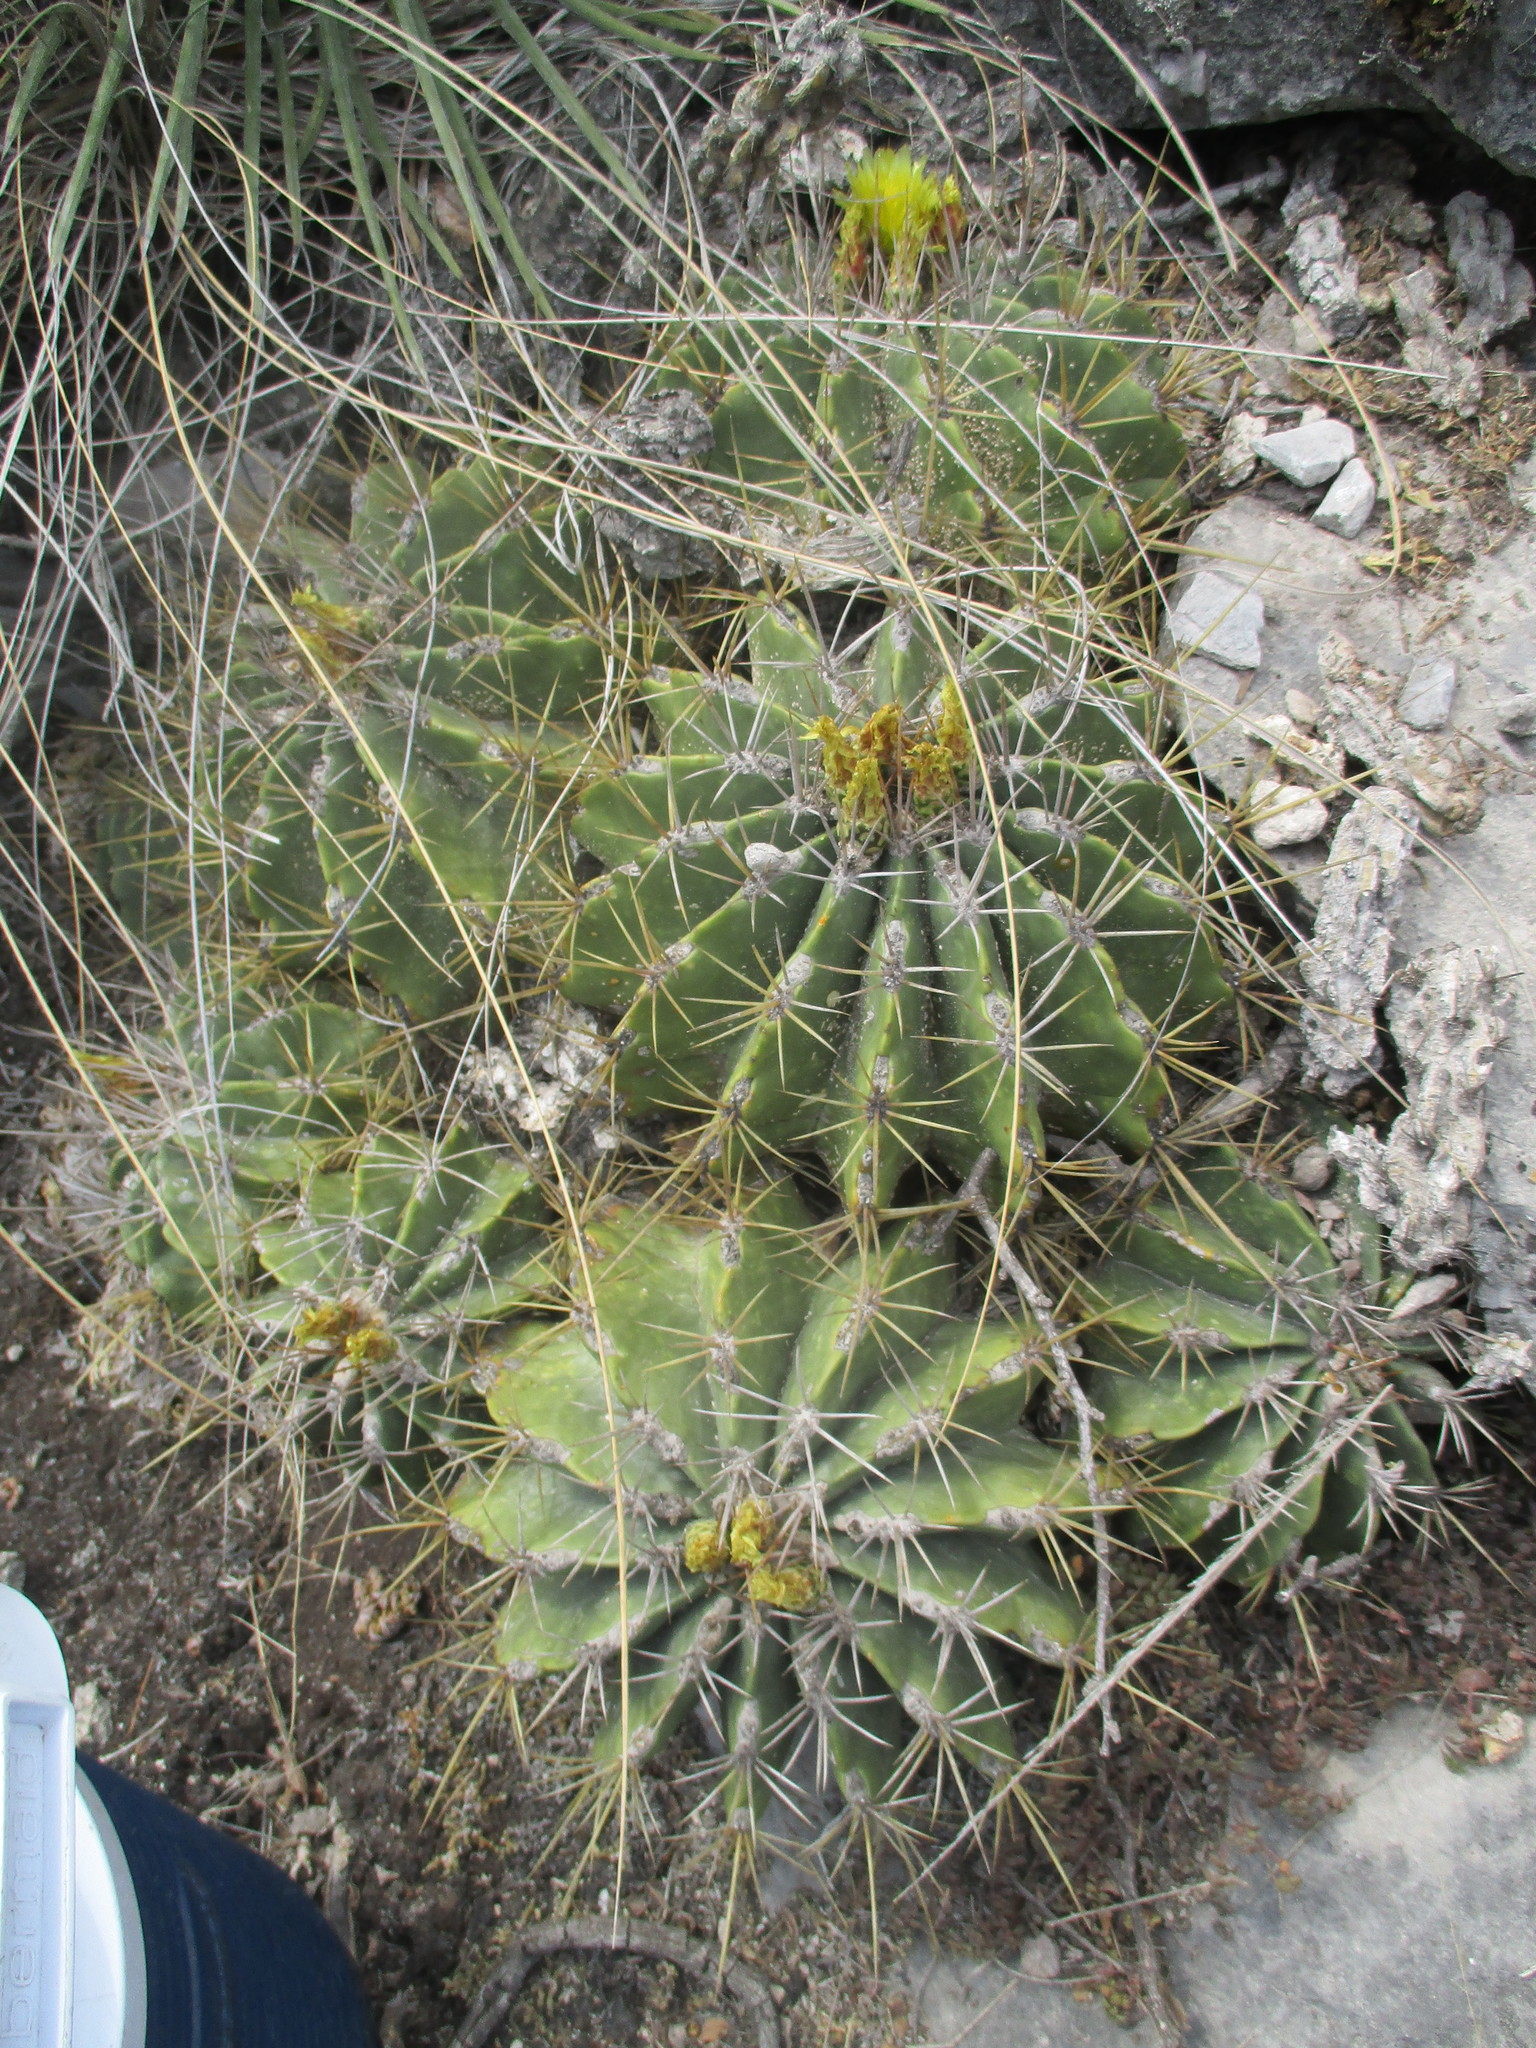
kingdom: Plantae
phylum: Tracheophyta
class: Magnoliopsida
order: Caryophyllales
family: Cactaceae
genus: Parrycactus
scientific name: Parrycactus echidne
